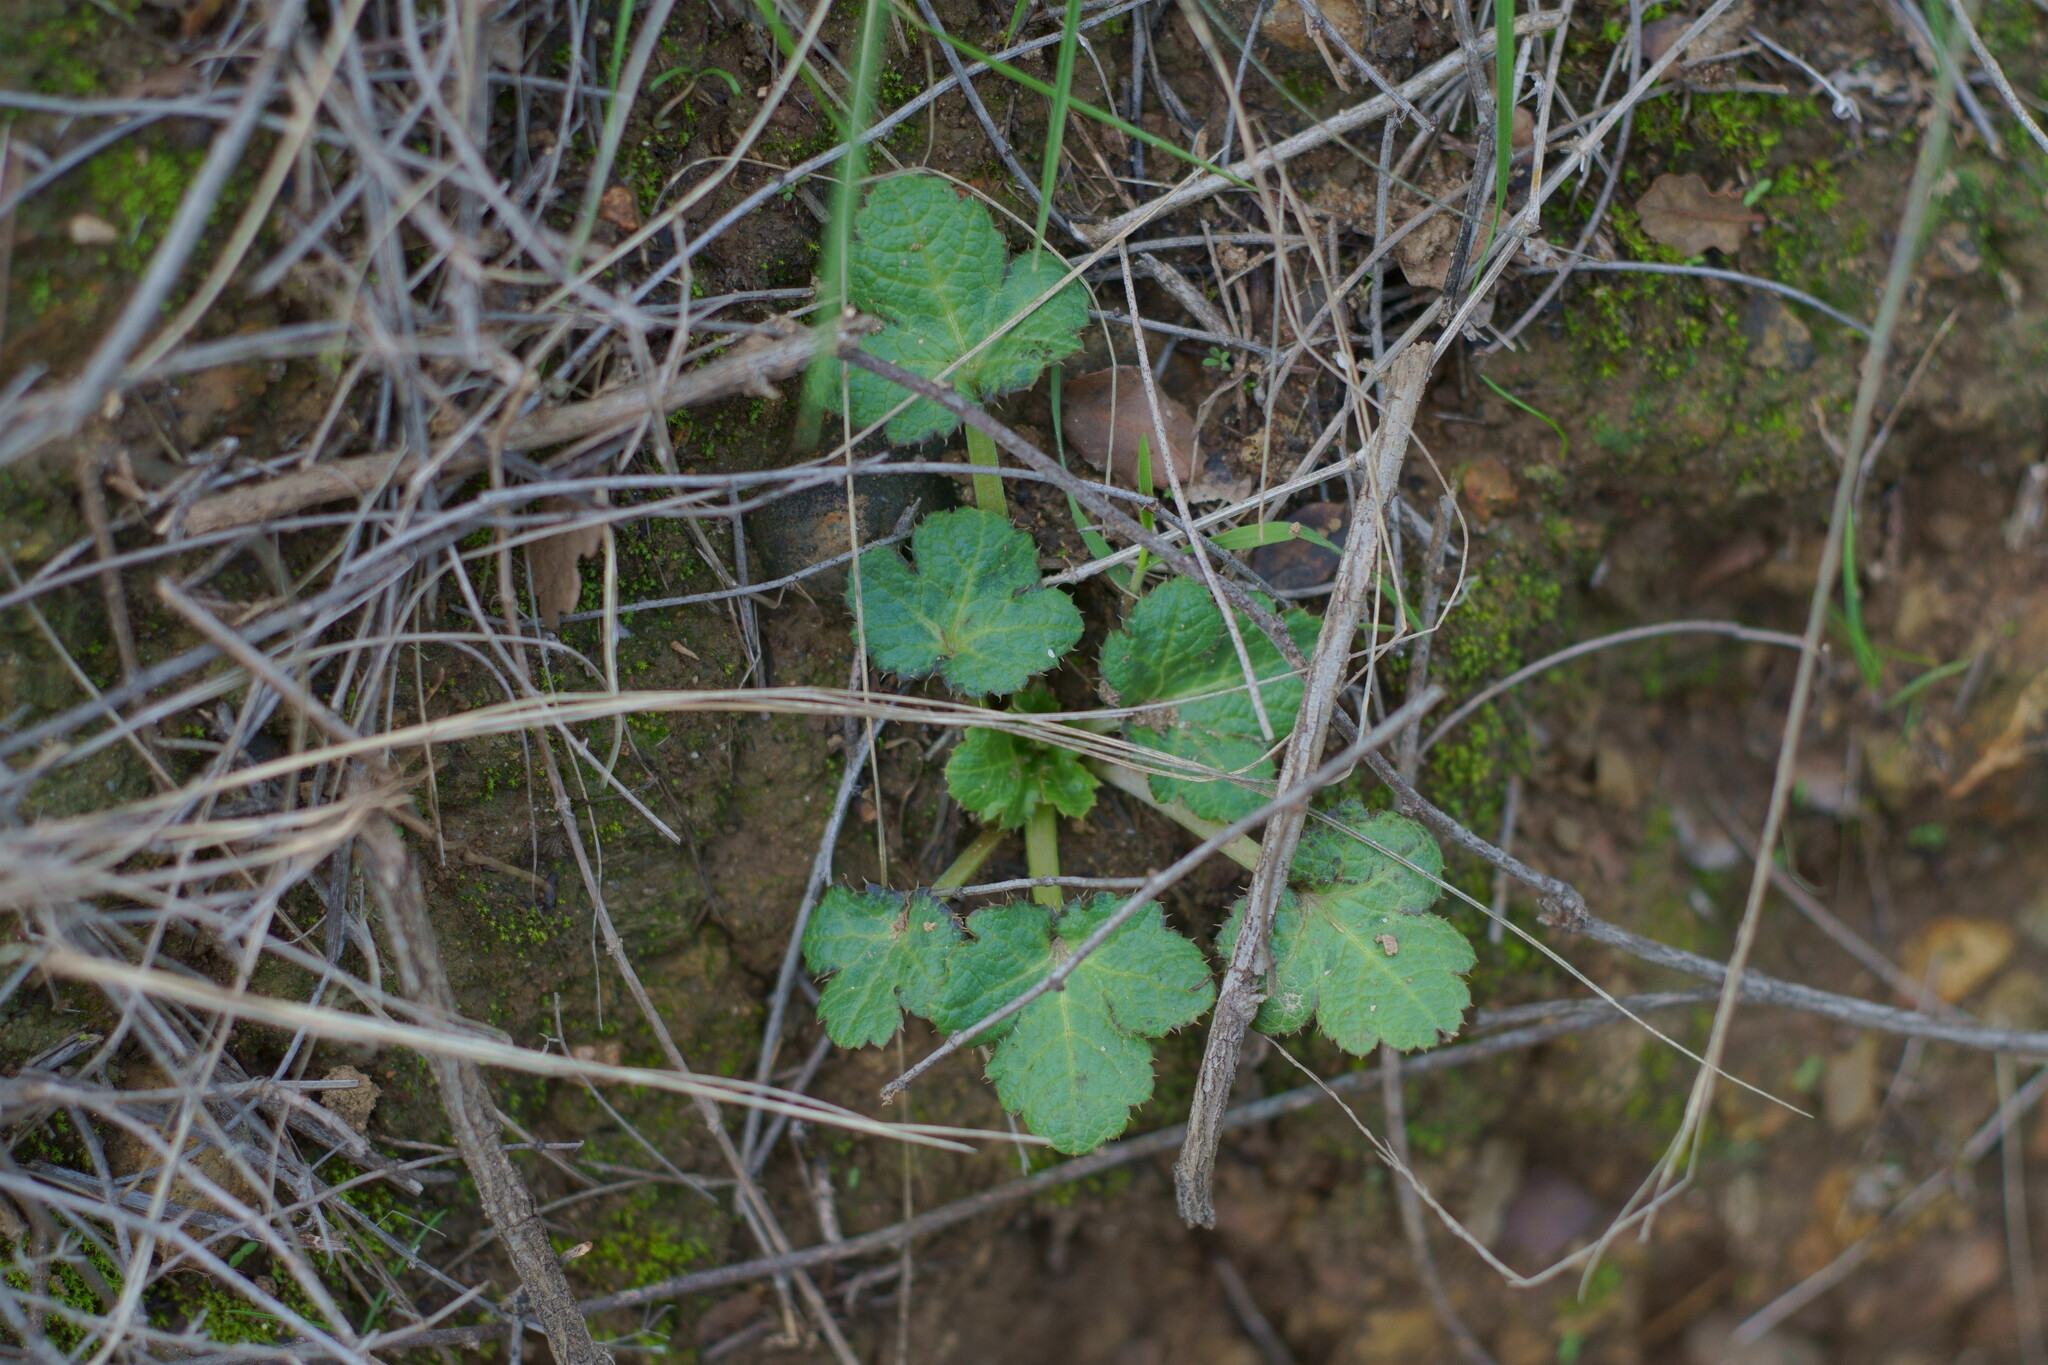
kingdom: Plantae
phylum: Tracheophyta
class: Magnoliopsida
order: Apiales
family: Apiaceae
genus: Sanicula
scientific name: Sanicula crassicaulis
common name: Western snakeroot
